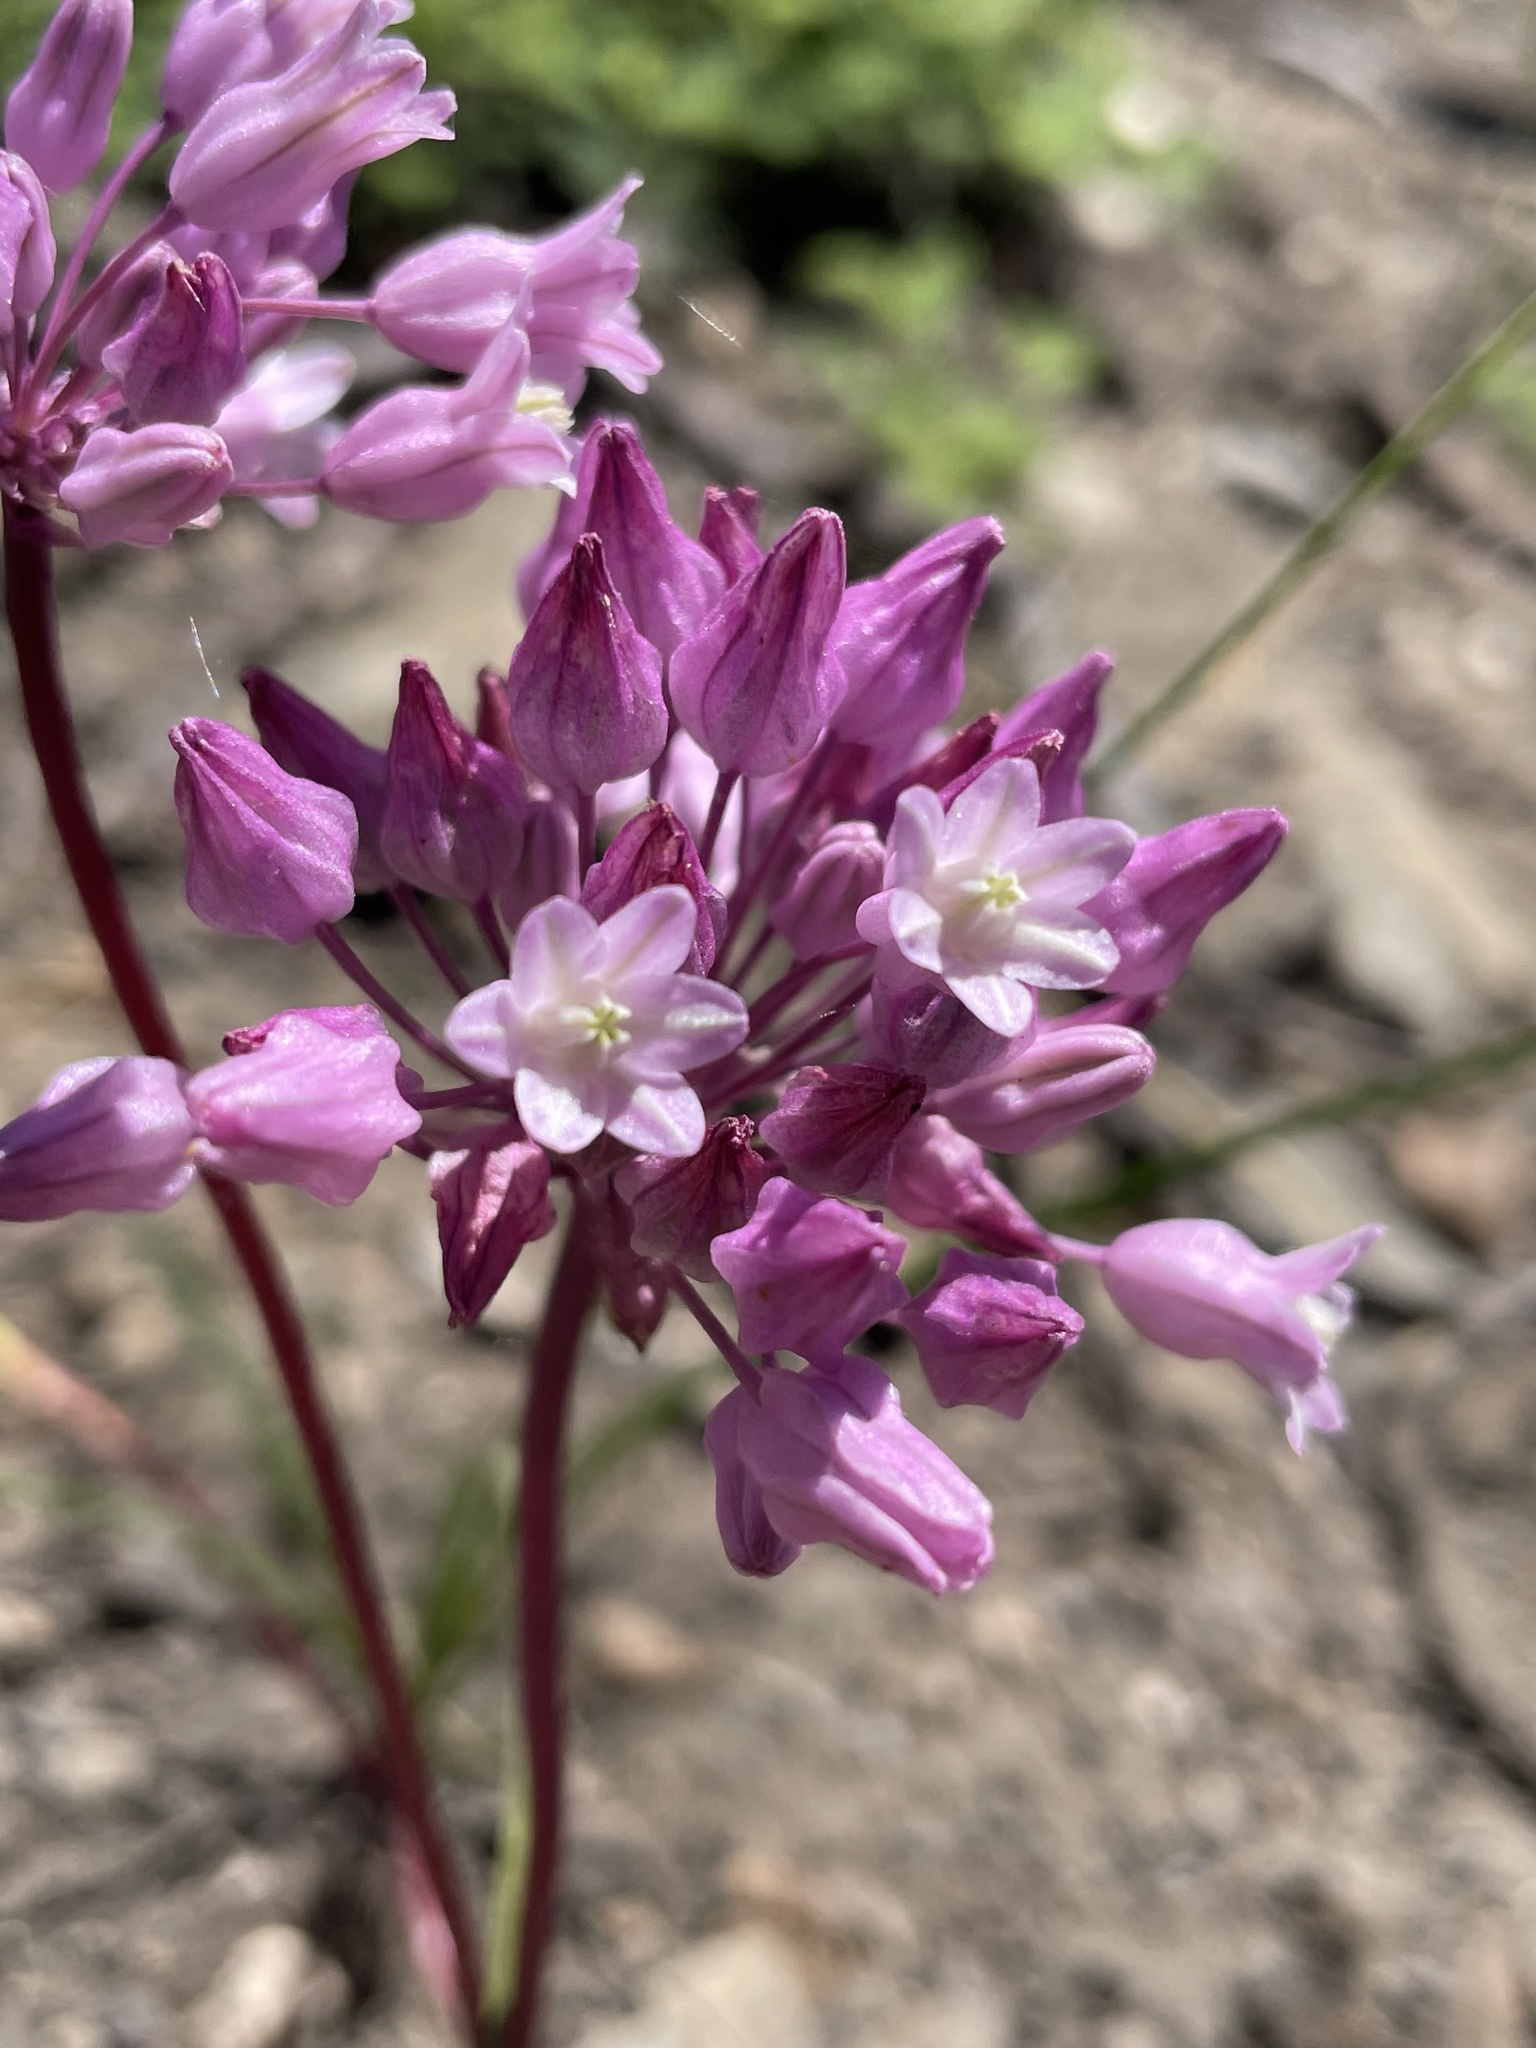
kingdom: Plantae
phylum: Tracheophyta
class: Liliopsida
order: Asparagales
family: Asparagaceae
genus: Dichelostemma
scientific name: Dichelostemma volubile
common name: Trining brodiaea
